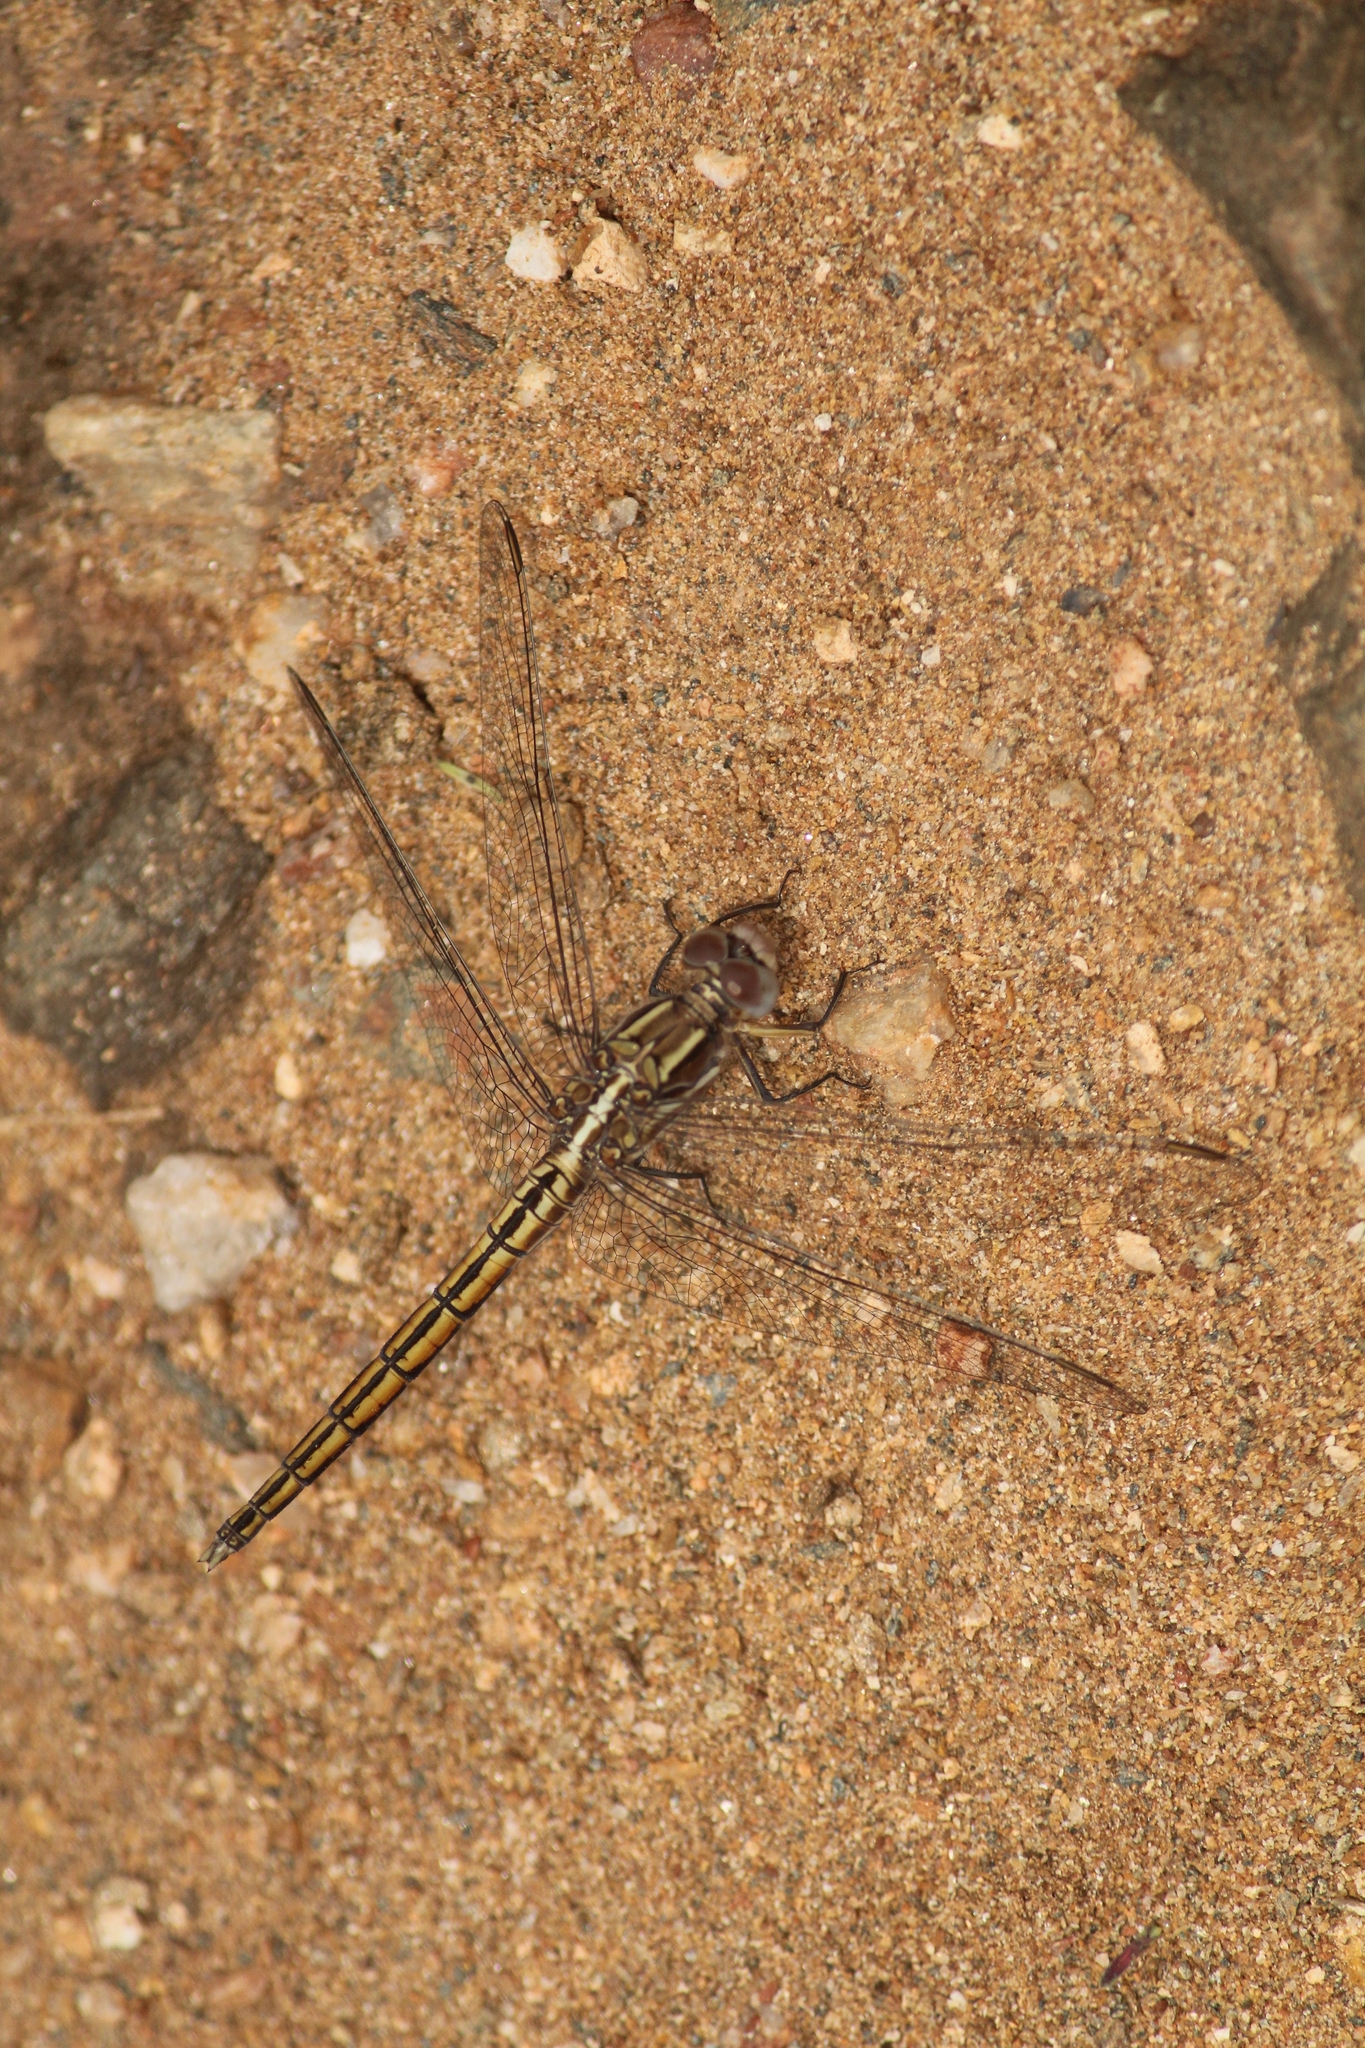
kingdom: Animalia
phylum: Arthropoda
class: Insecta
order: Odonata
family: Libellulidae
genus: Orthetrum
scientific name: Orthetrum taeniolatum
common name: Small skimmer
